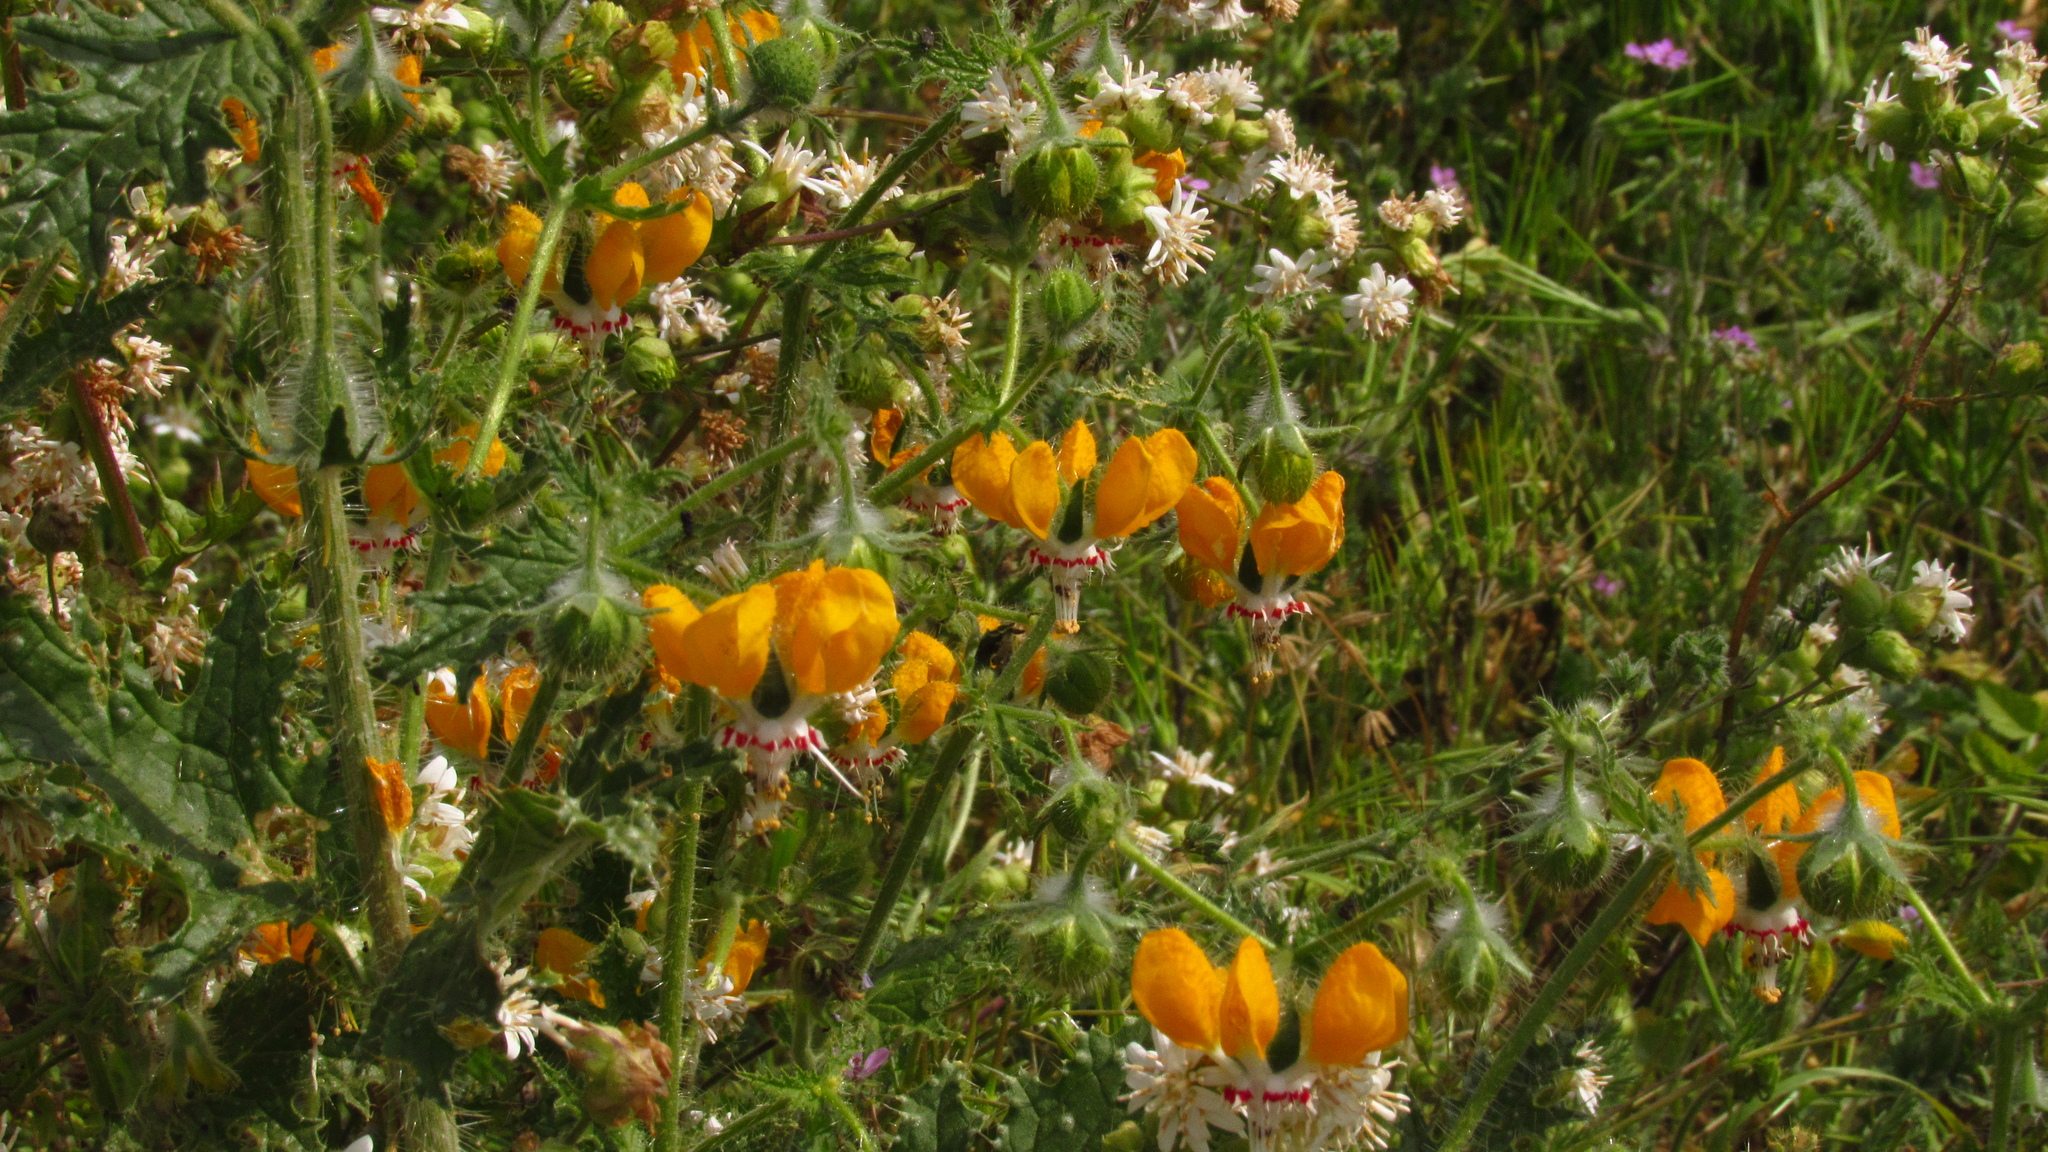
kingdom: Plantae
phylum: Tracheophyta
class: Magnoliopsida
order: Cornales
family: Loasaceae
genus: Loasa
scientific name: Loasa placei
